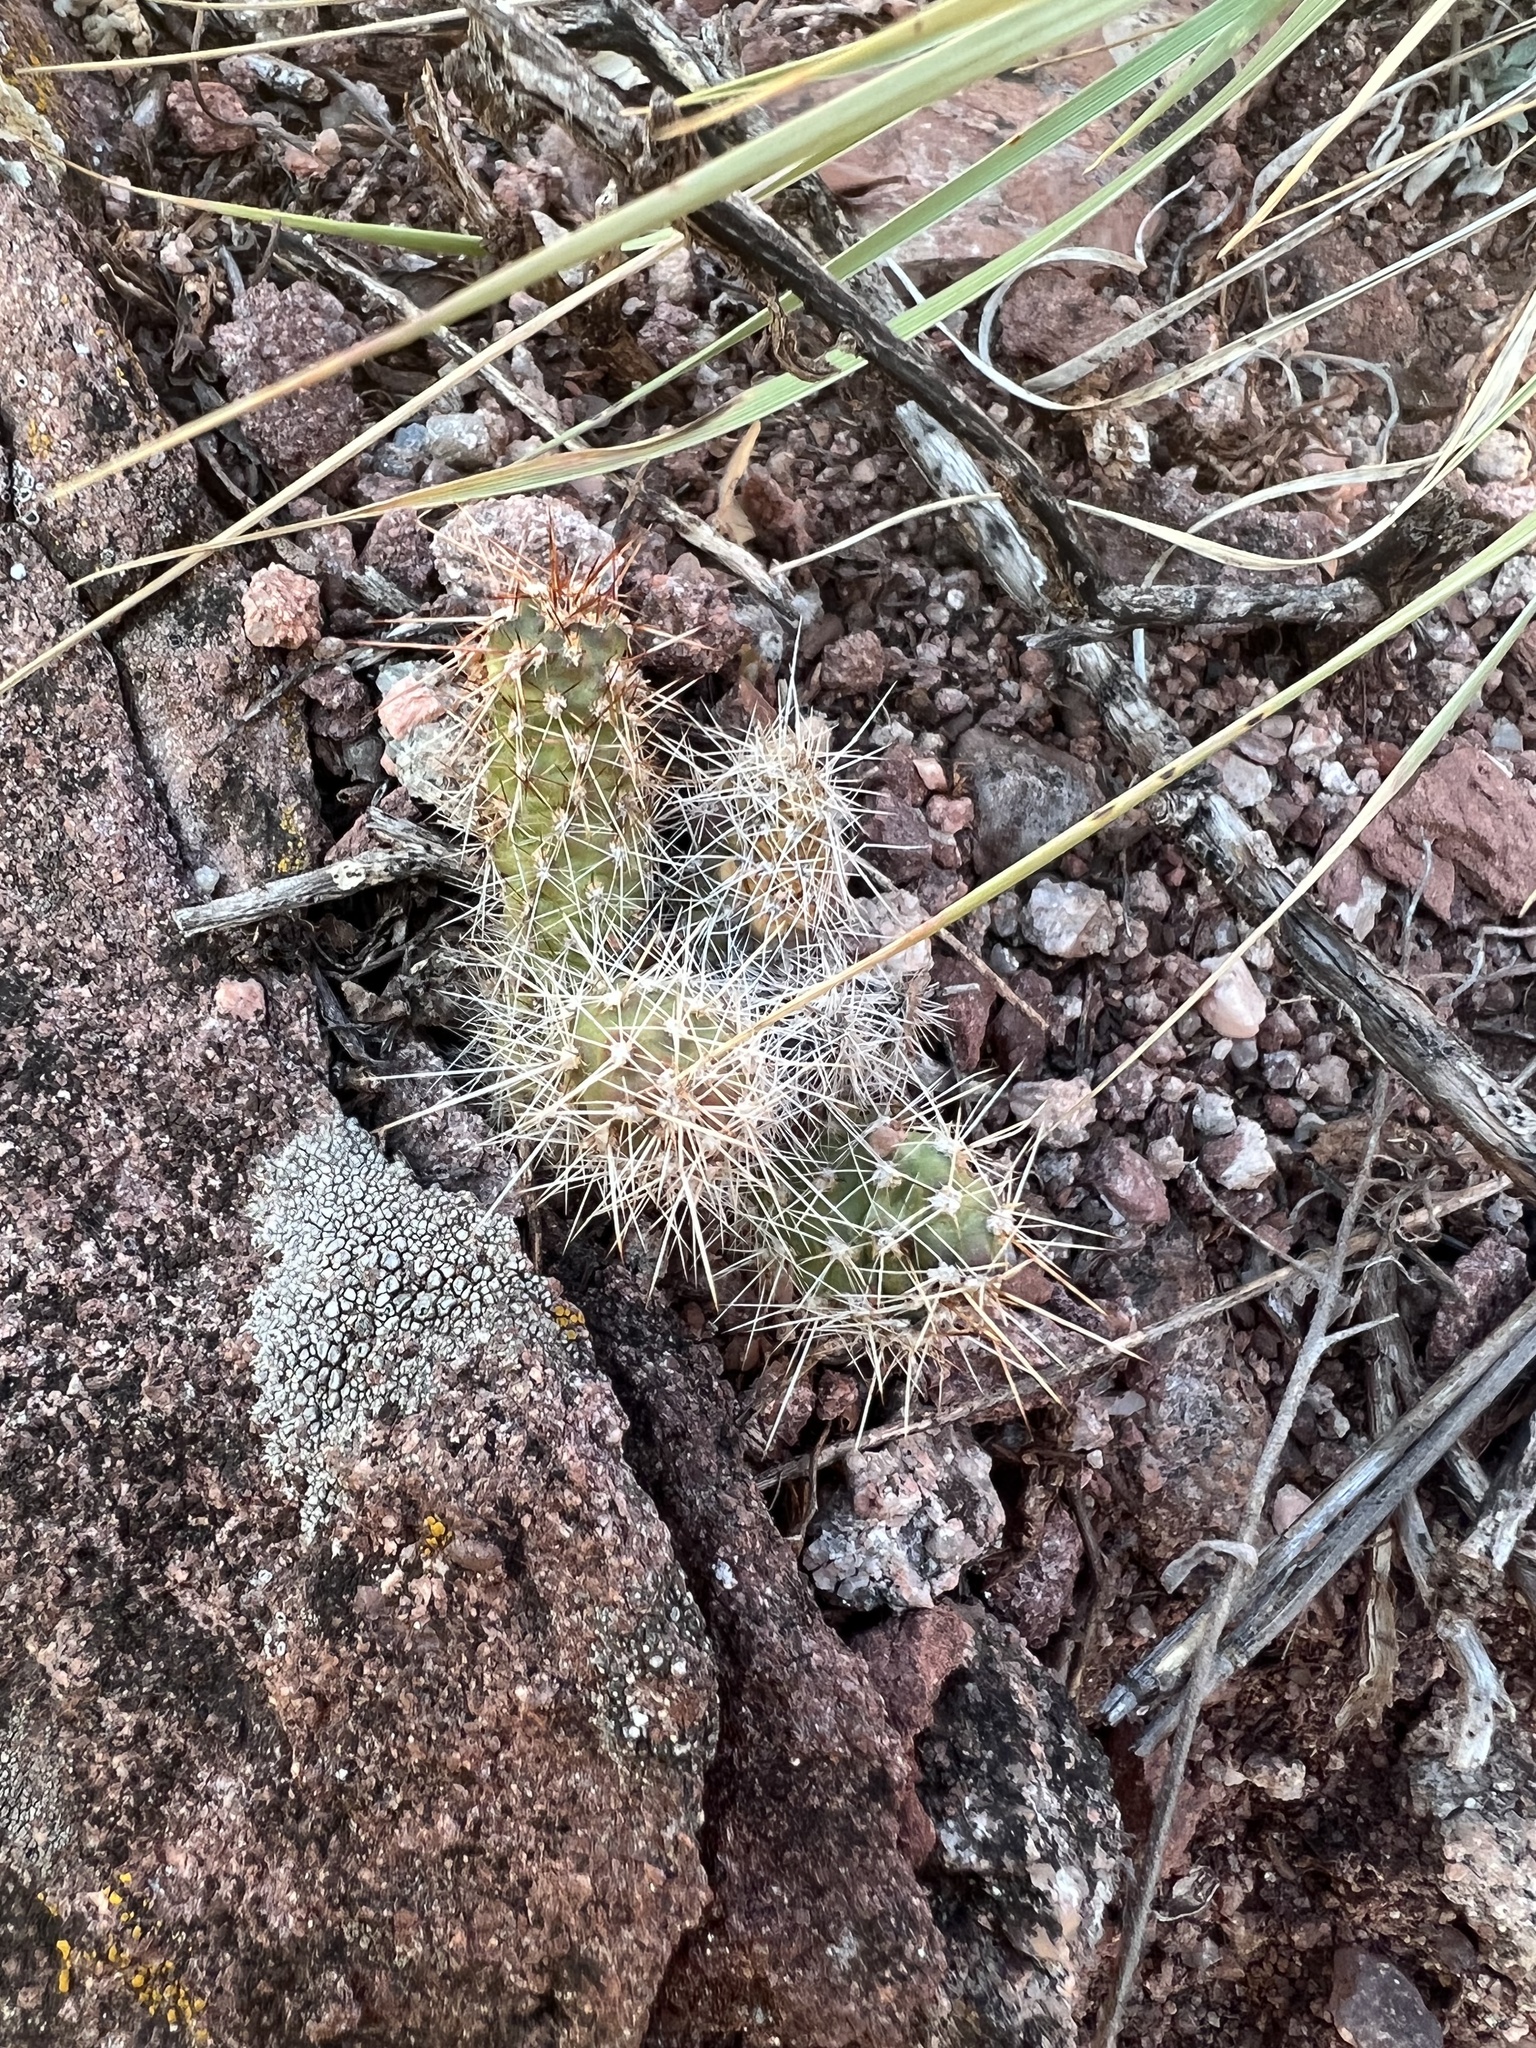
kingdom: Plantae
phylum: Tracheophyta
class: Magnoliopsida
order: Caryophyllales
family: Cactaceae
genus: Opuntia
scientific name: Opuntia fragilis
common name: Brittle cactus
